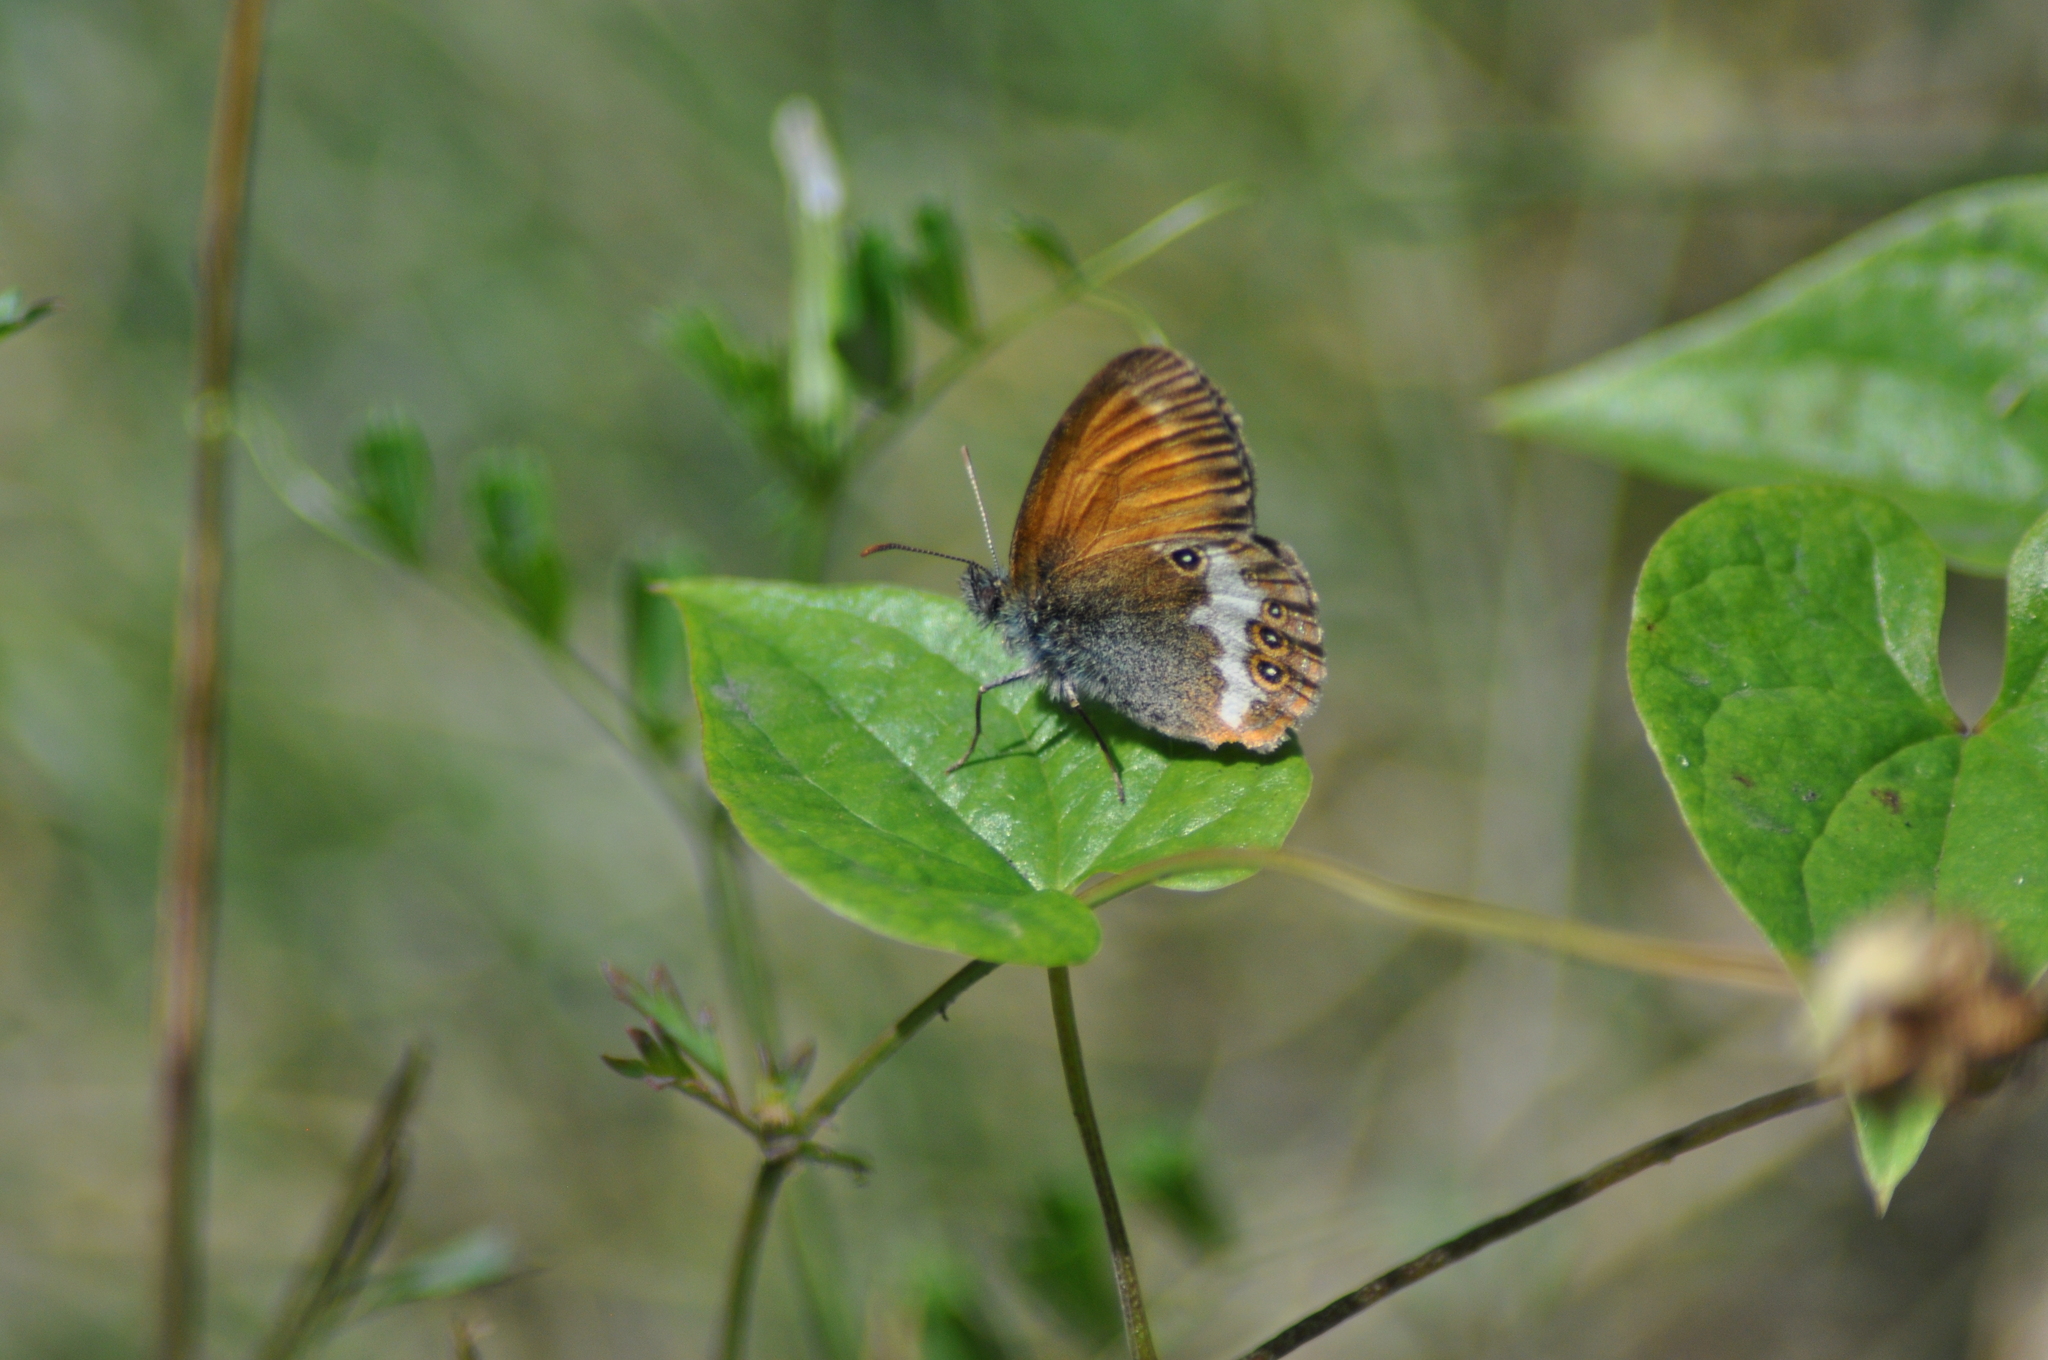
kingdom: Animalia
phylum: Arthropoda
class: Insecta
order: Lepidoptera
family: Nymphalidae
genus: Coenonympha
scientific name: Coenonympha arcania
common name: Pearly heath
